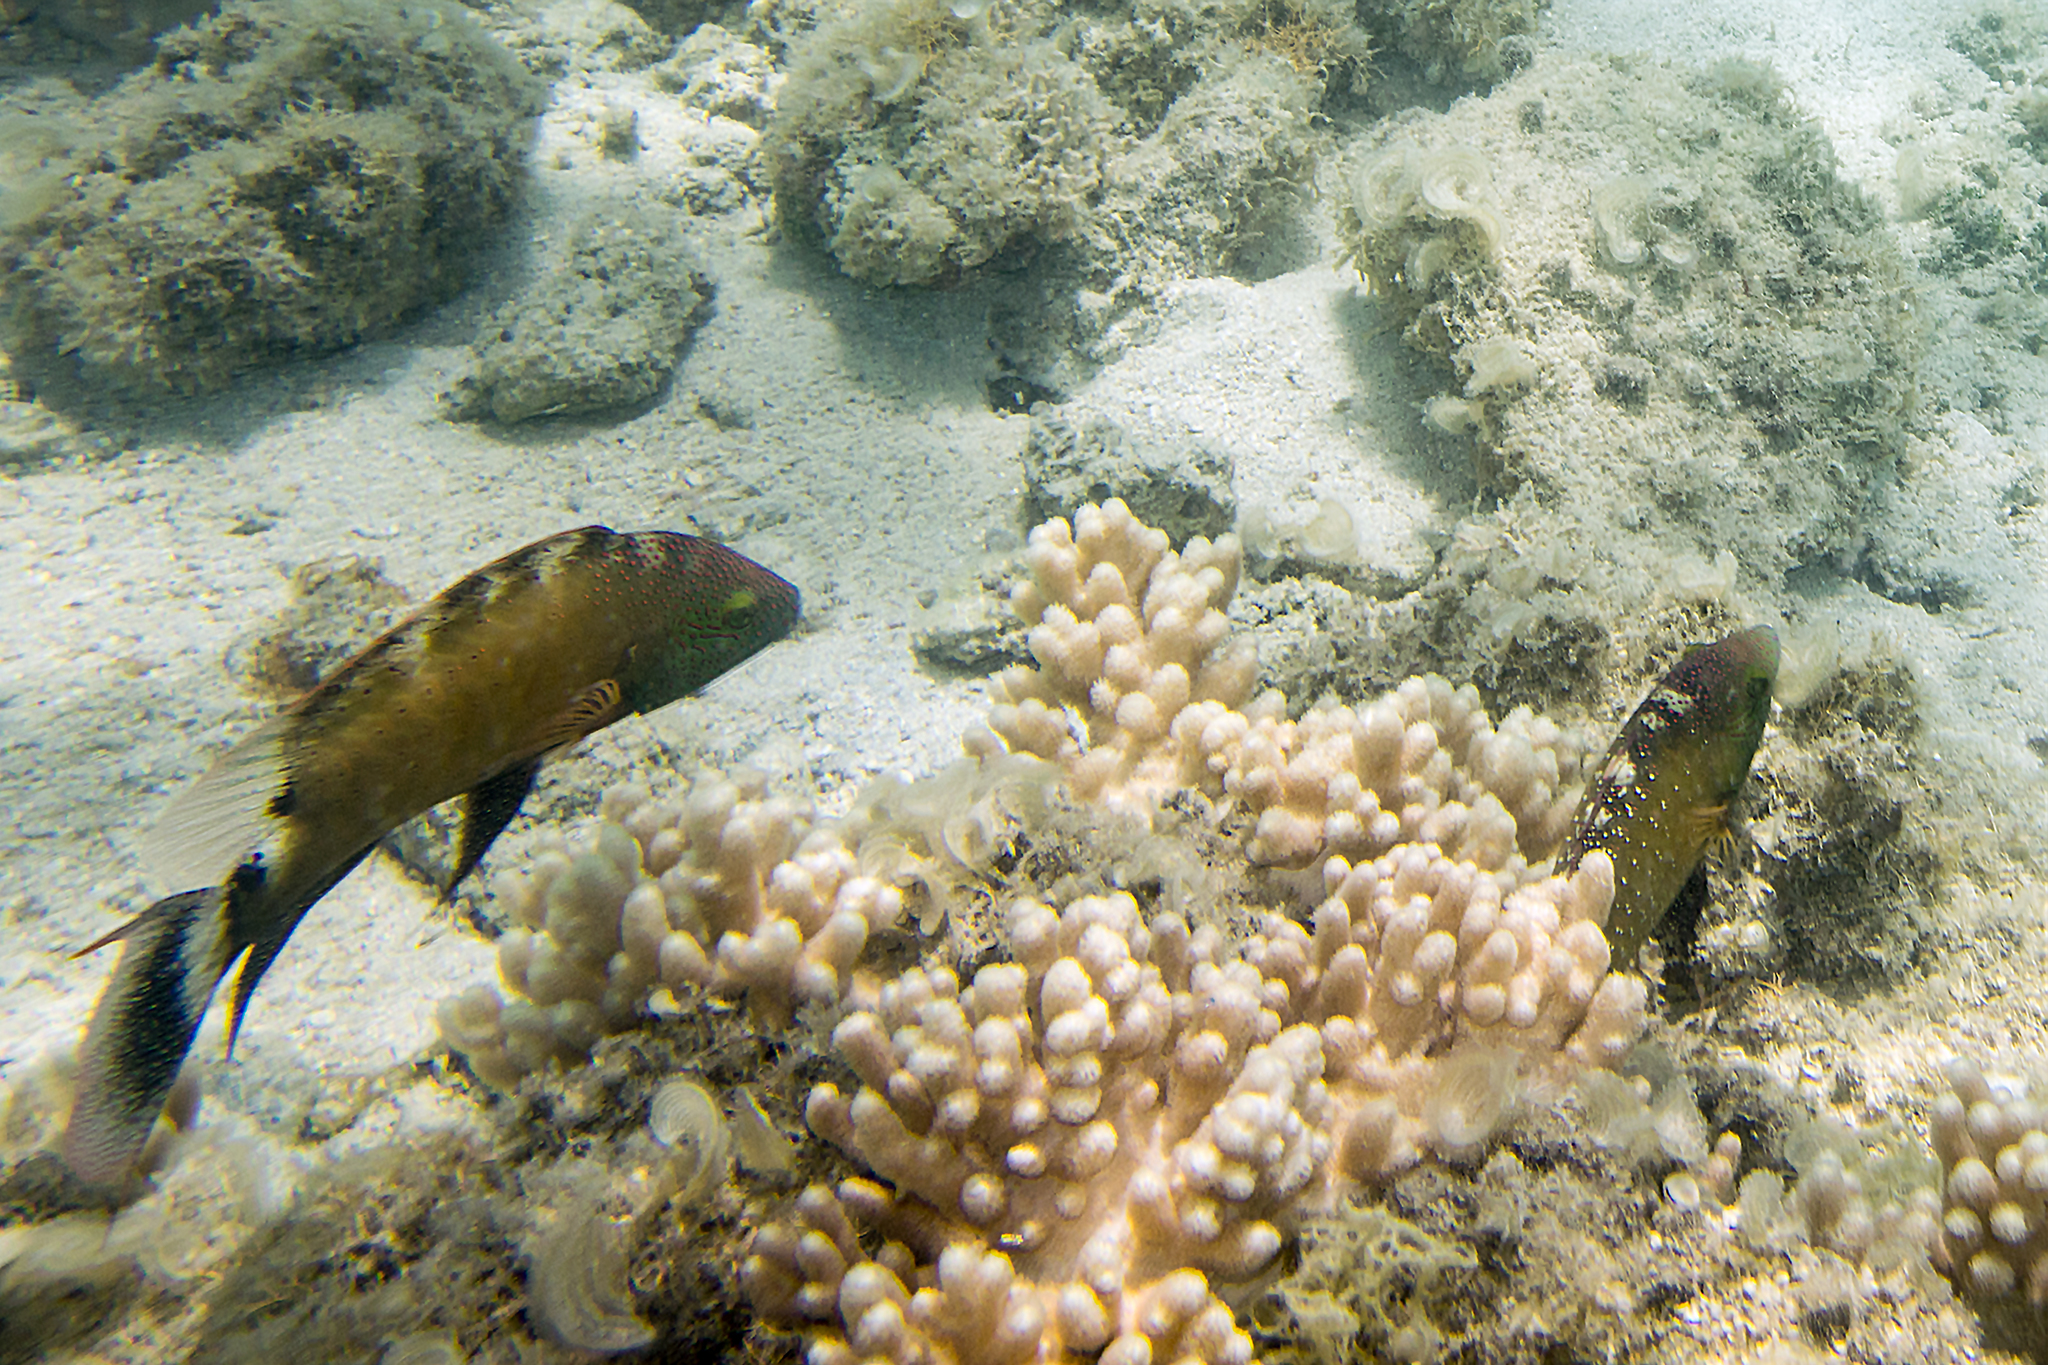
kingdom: Animalia
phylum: Chordata
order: Perciformes
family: Labridae
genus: Cheilinus
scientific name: Cheilinus chlorourus
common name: Floral wrasse
